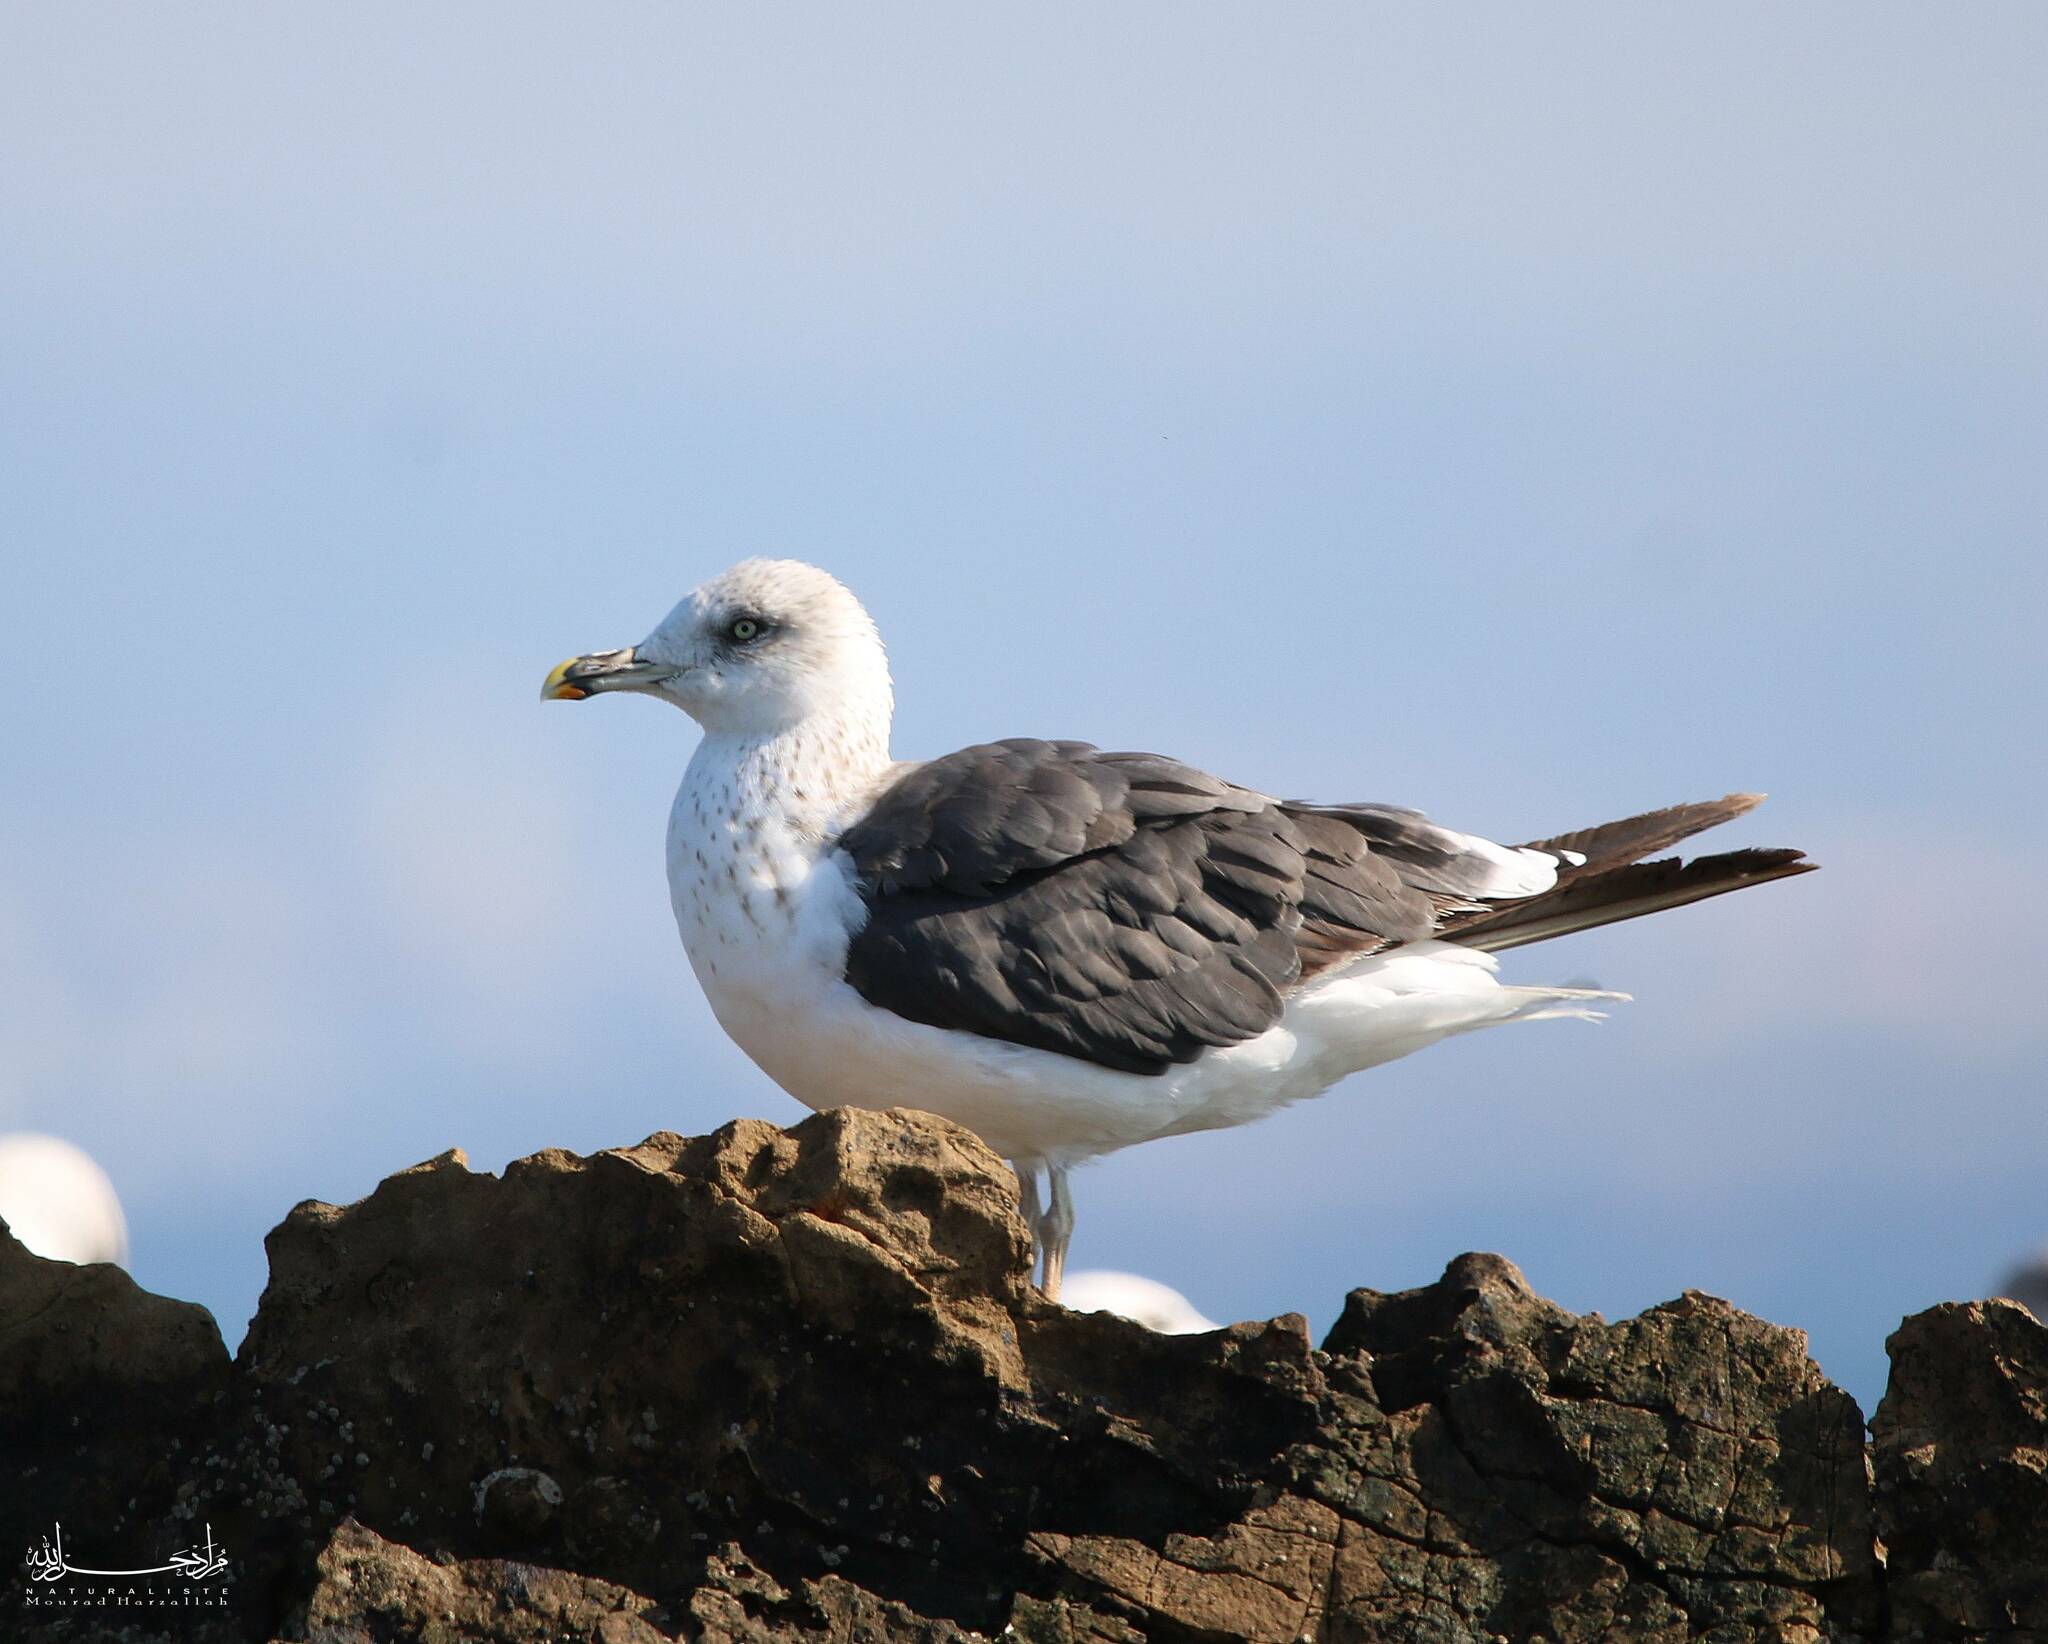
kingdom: Animalia
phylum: Chordata
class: Aves
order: Charadriiformes
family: Laridae
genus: Larus
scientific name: Larus fuscus
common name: Lesser black-backed gull
